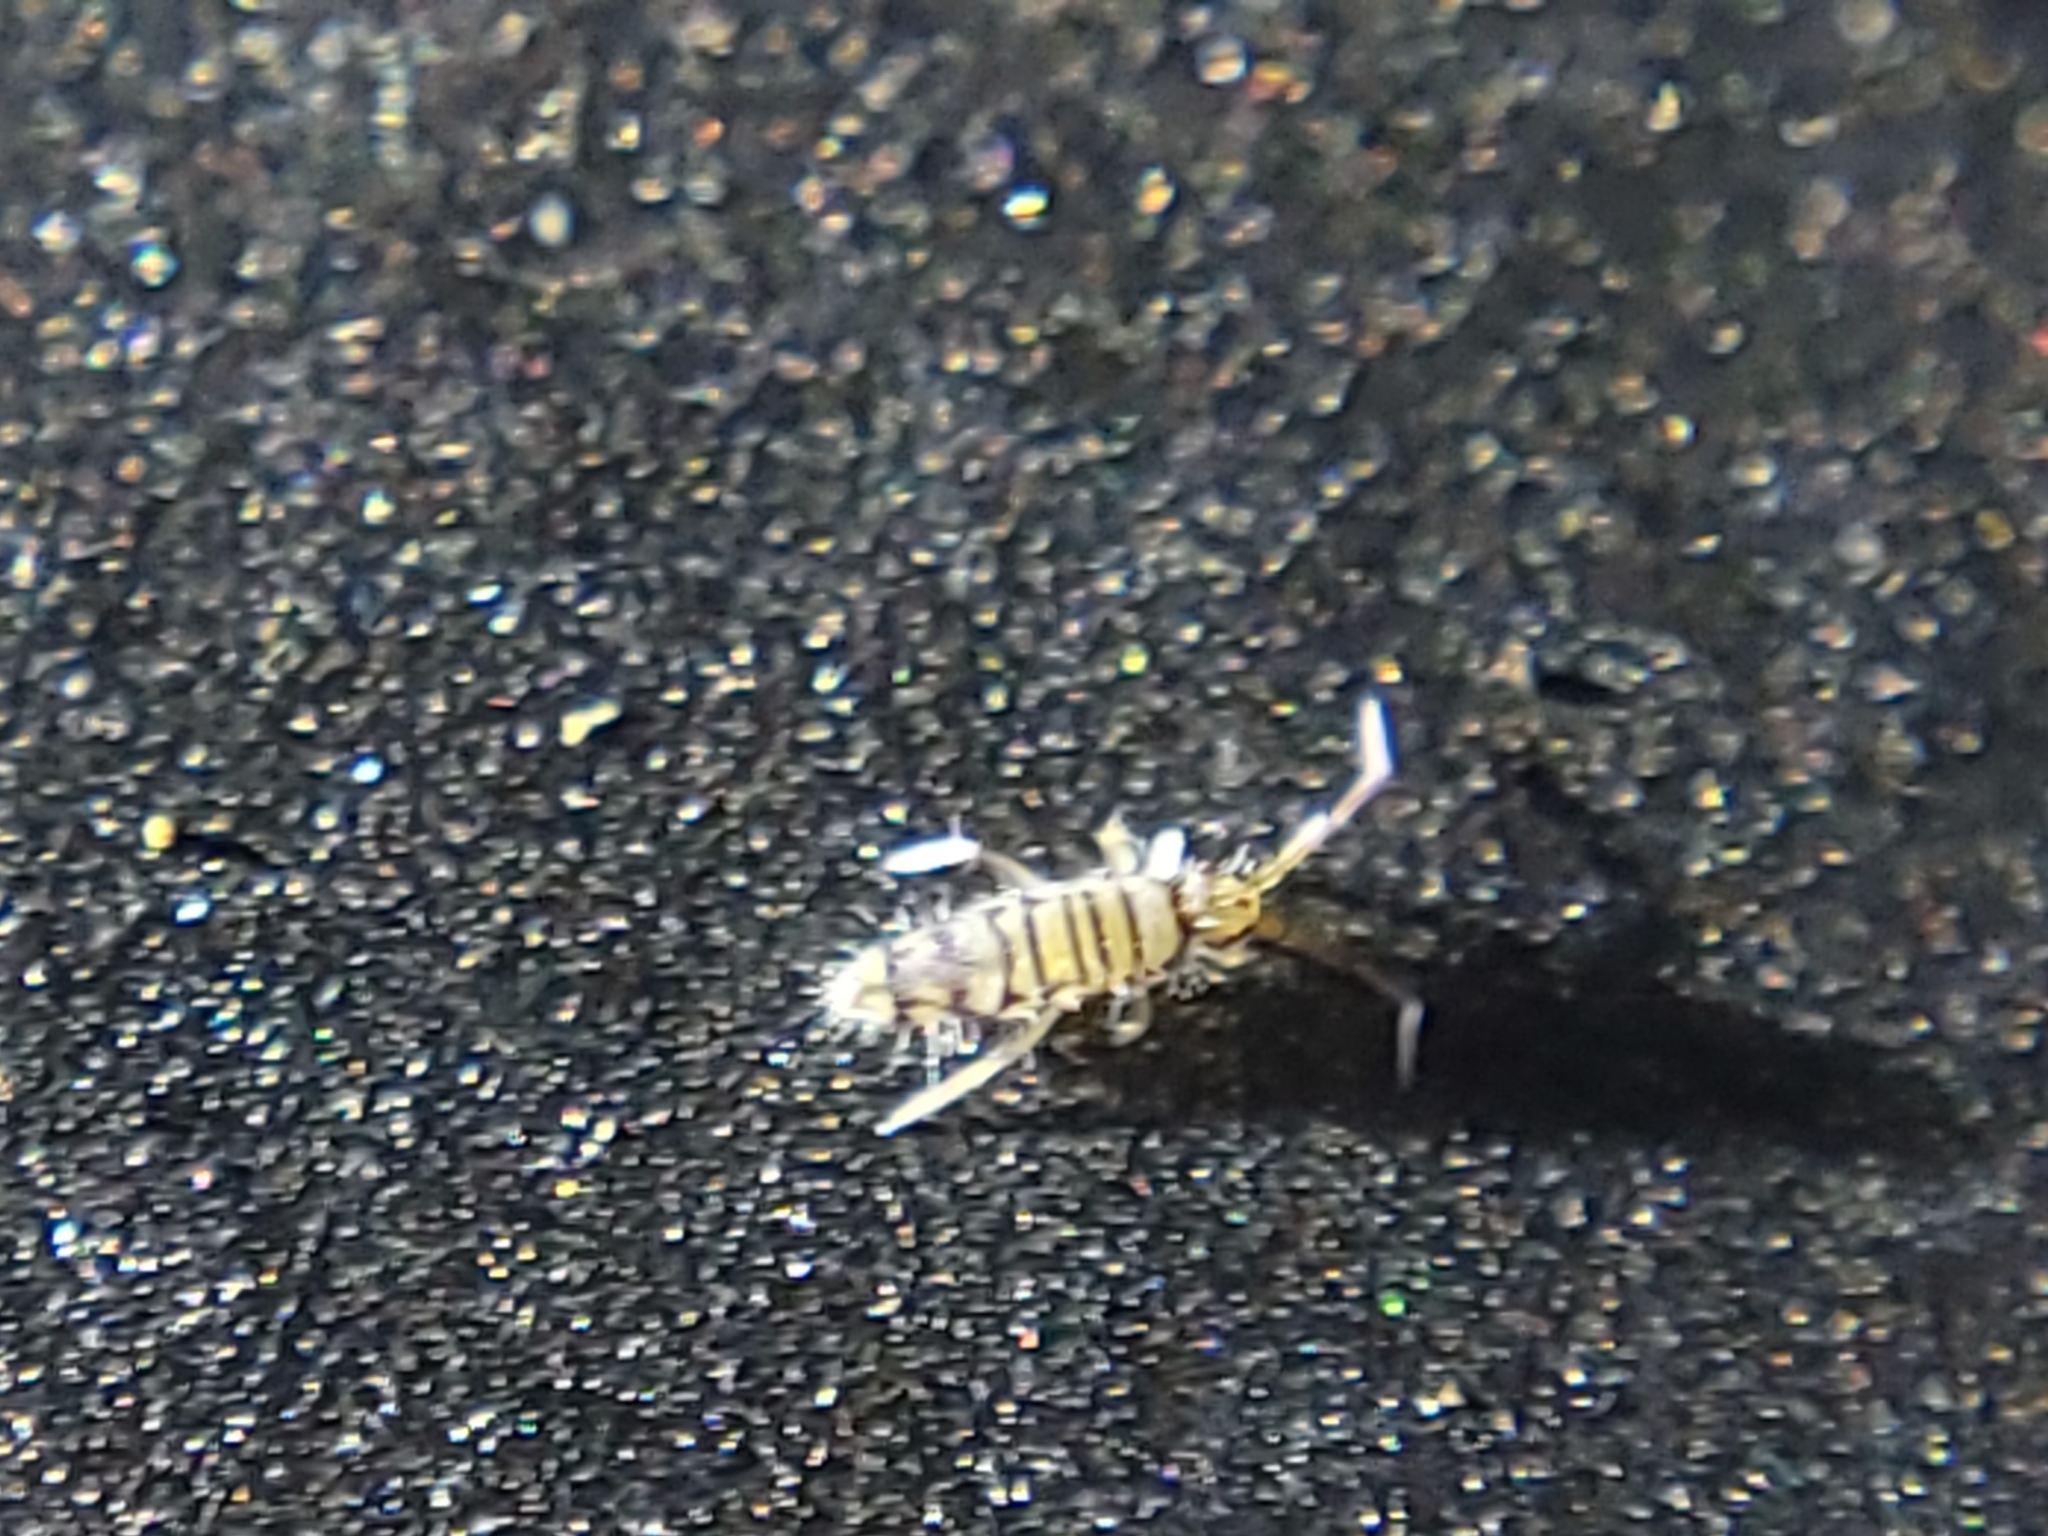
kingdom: Animalia
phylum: Arthropoda
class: Collembola
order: Entomobryomorpha
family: Entomobryidae
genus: Entomobrya
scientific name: Entomobrya atrocincta
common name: Springtail
